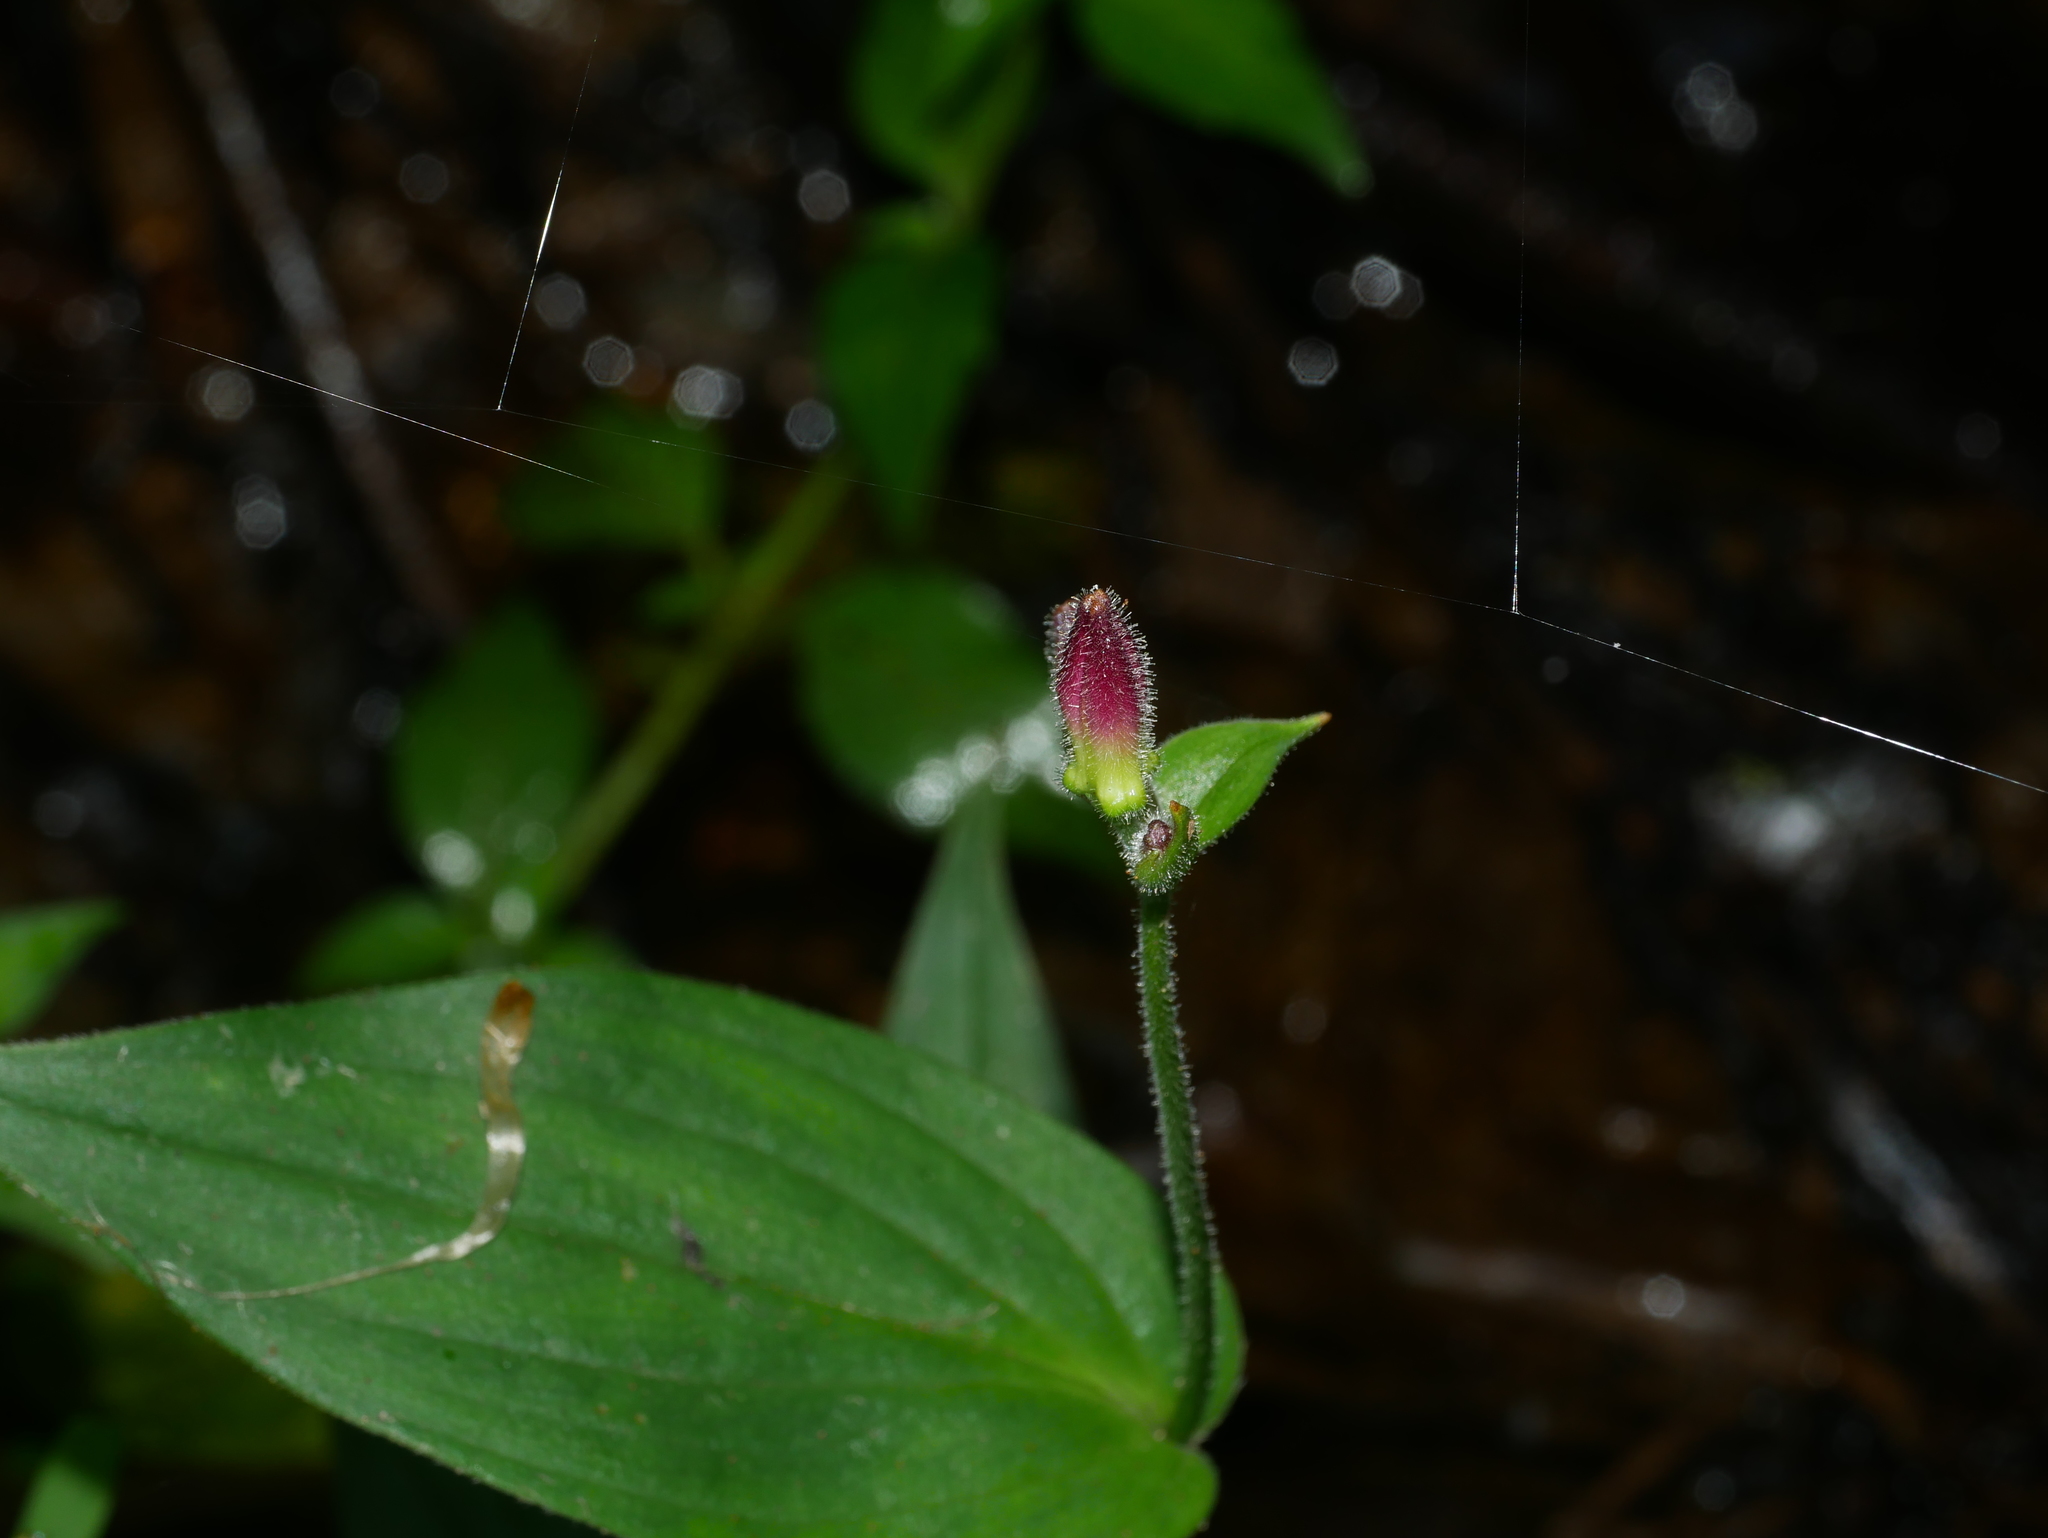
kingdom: Plantae
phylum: Tracheophyta
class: Liliopsida
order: Liliales
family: Liliaceae
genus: Tricyrtis
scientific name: Tricyrtis formosana
